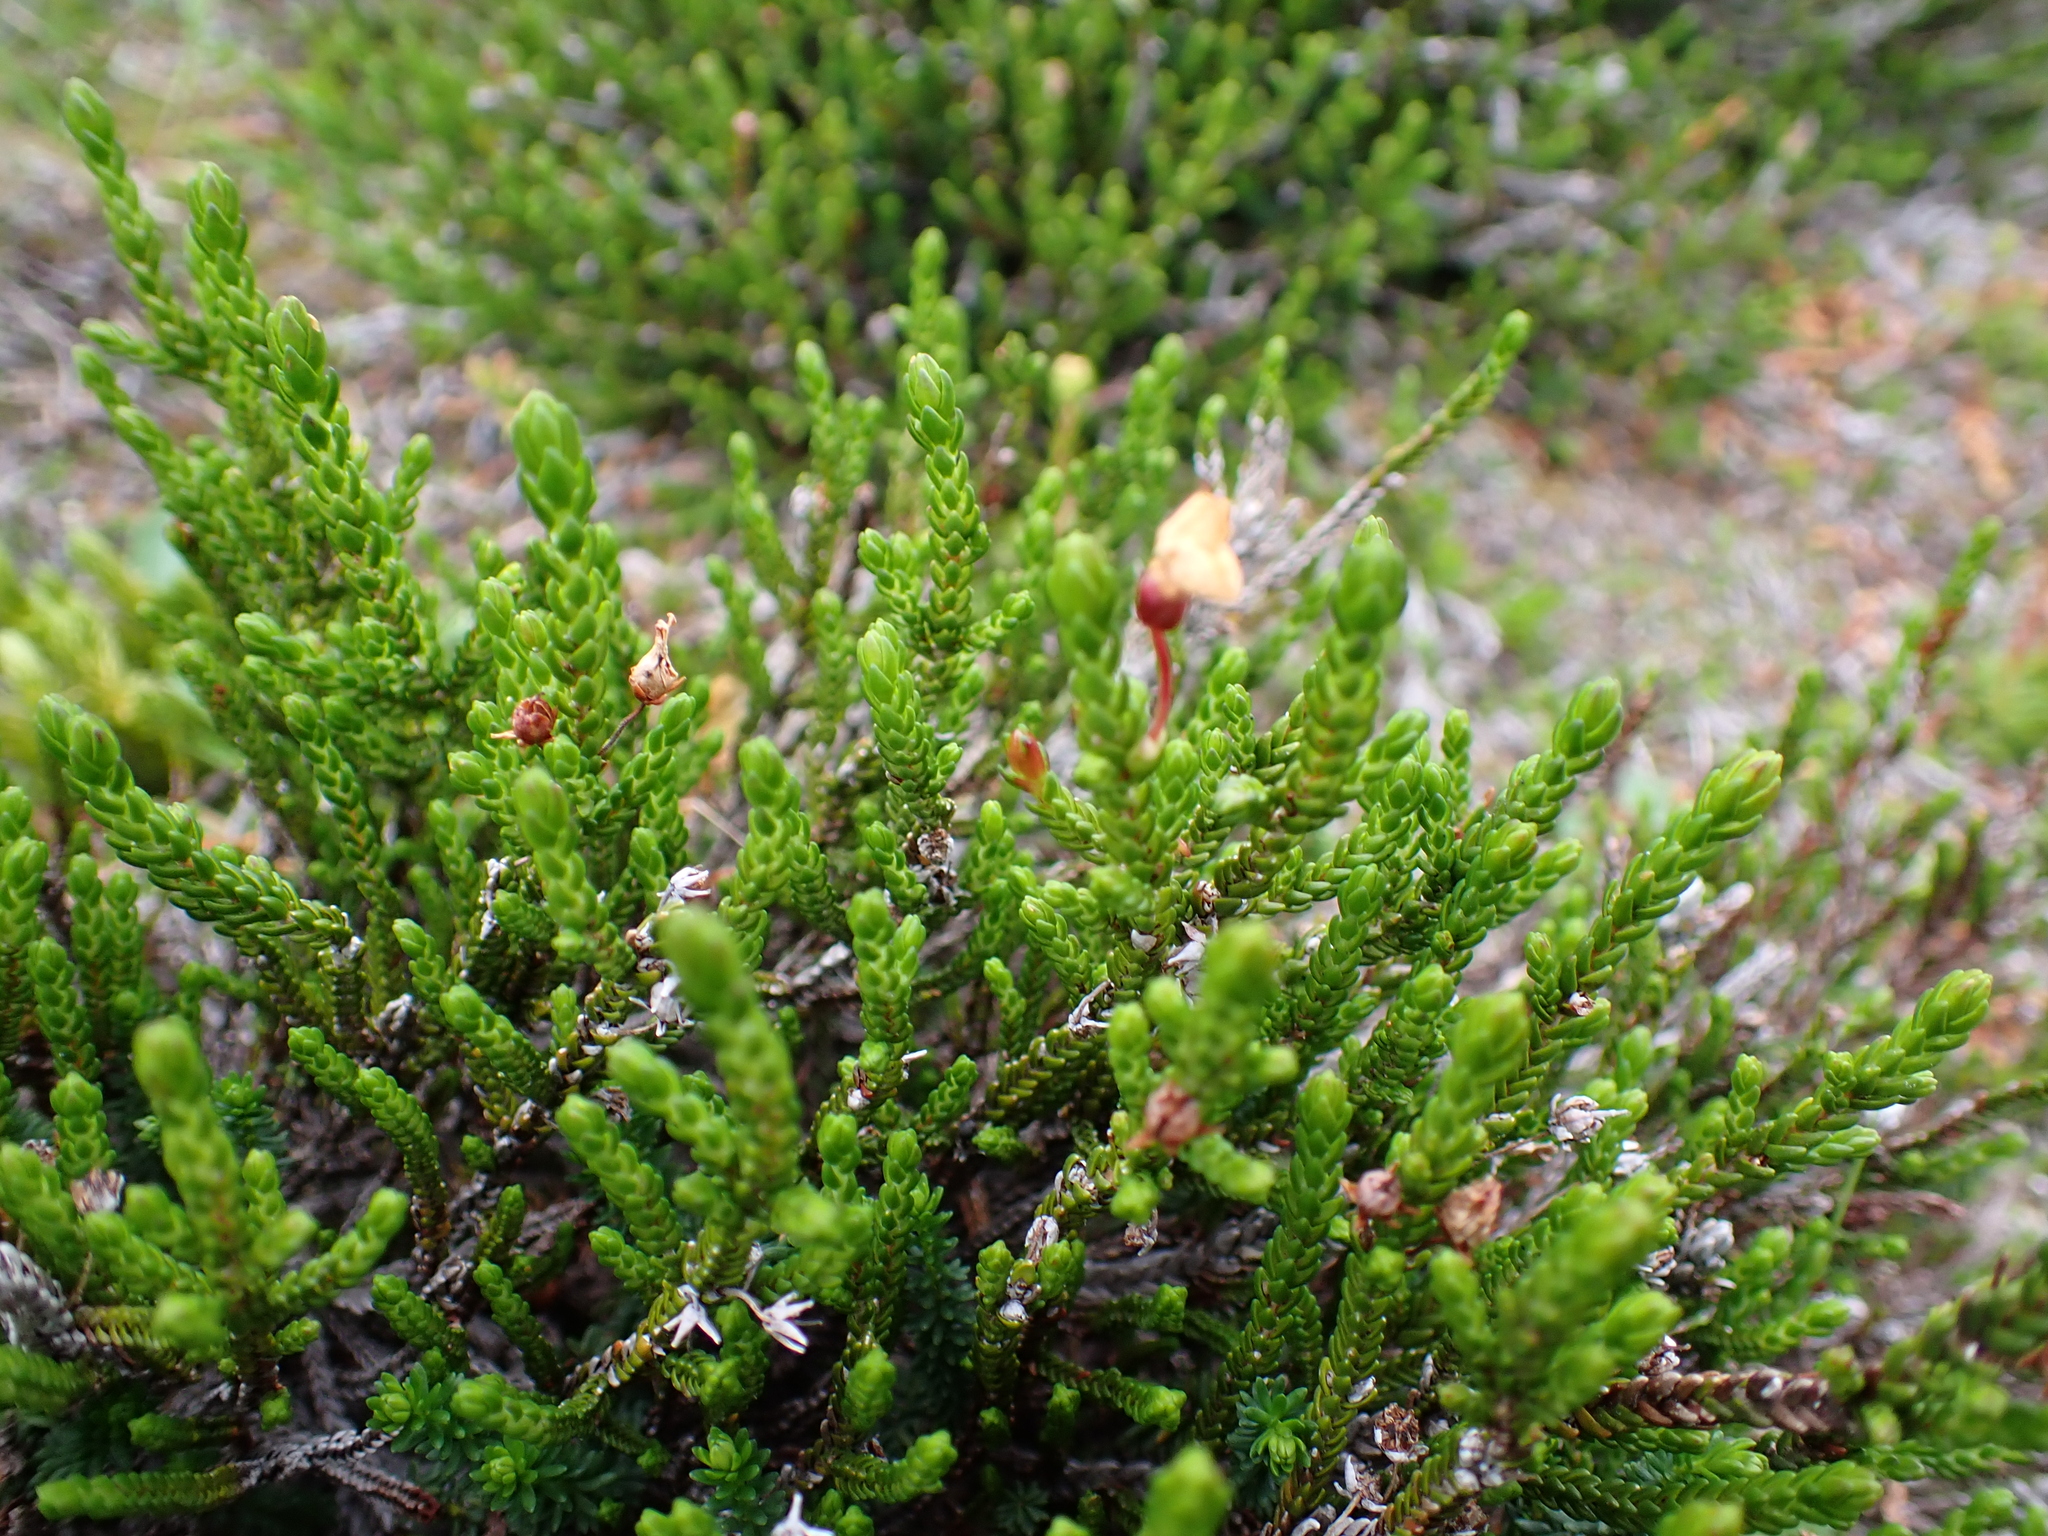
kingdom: Plantae
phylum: Tracheophyta
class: Magnoliopsida
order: Ericales
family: Ericaceae
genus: Cassiope
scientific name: Cassiope mertensiana
